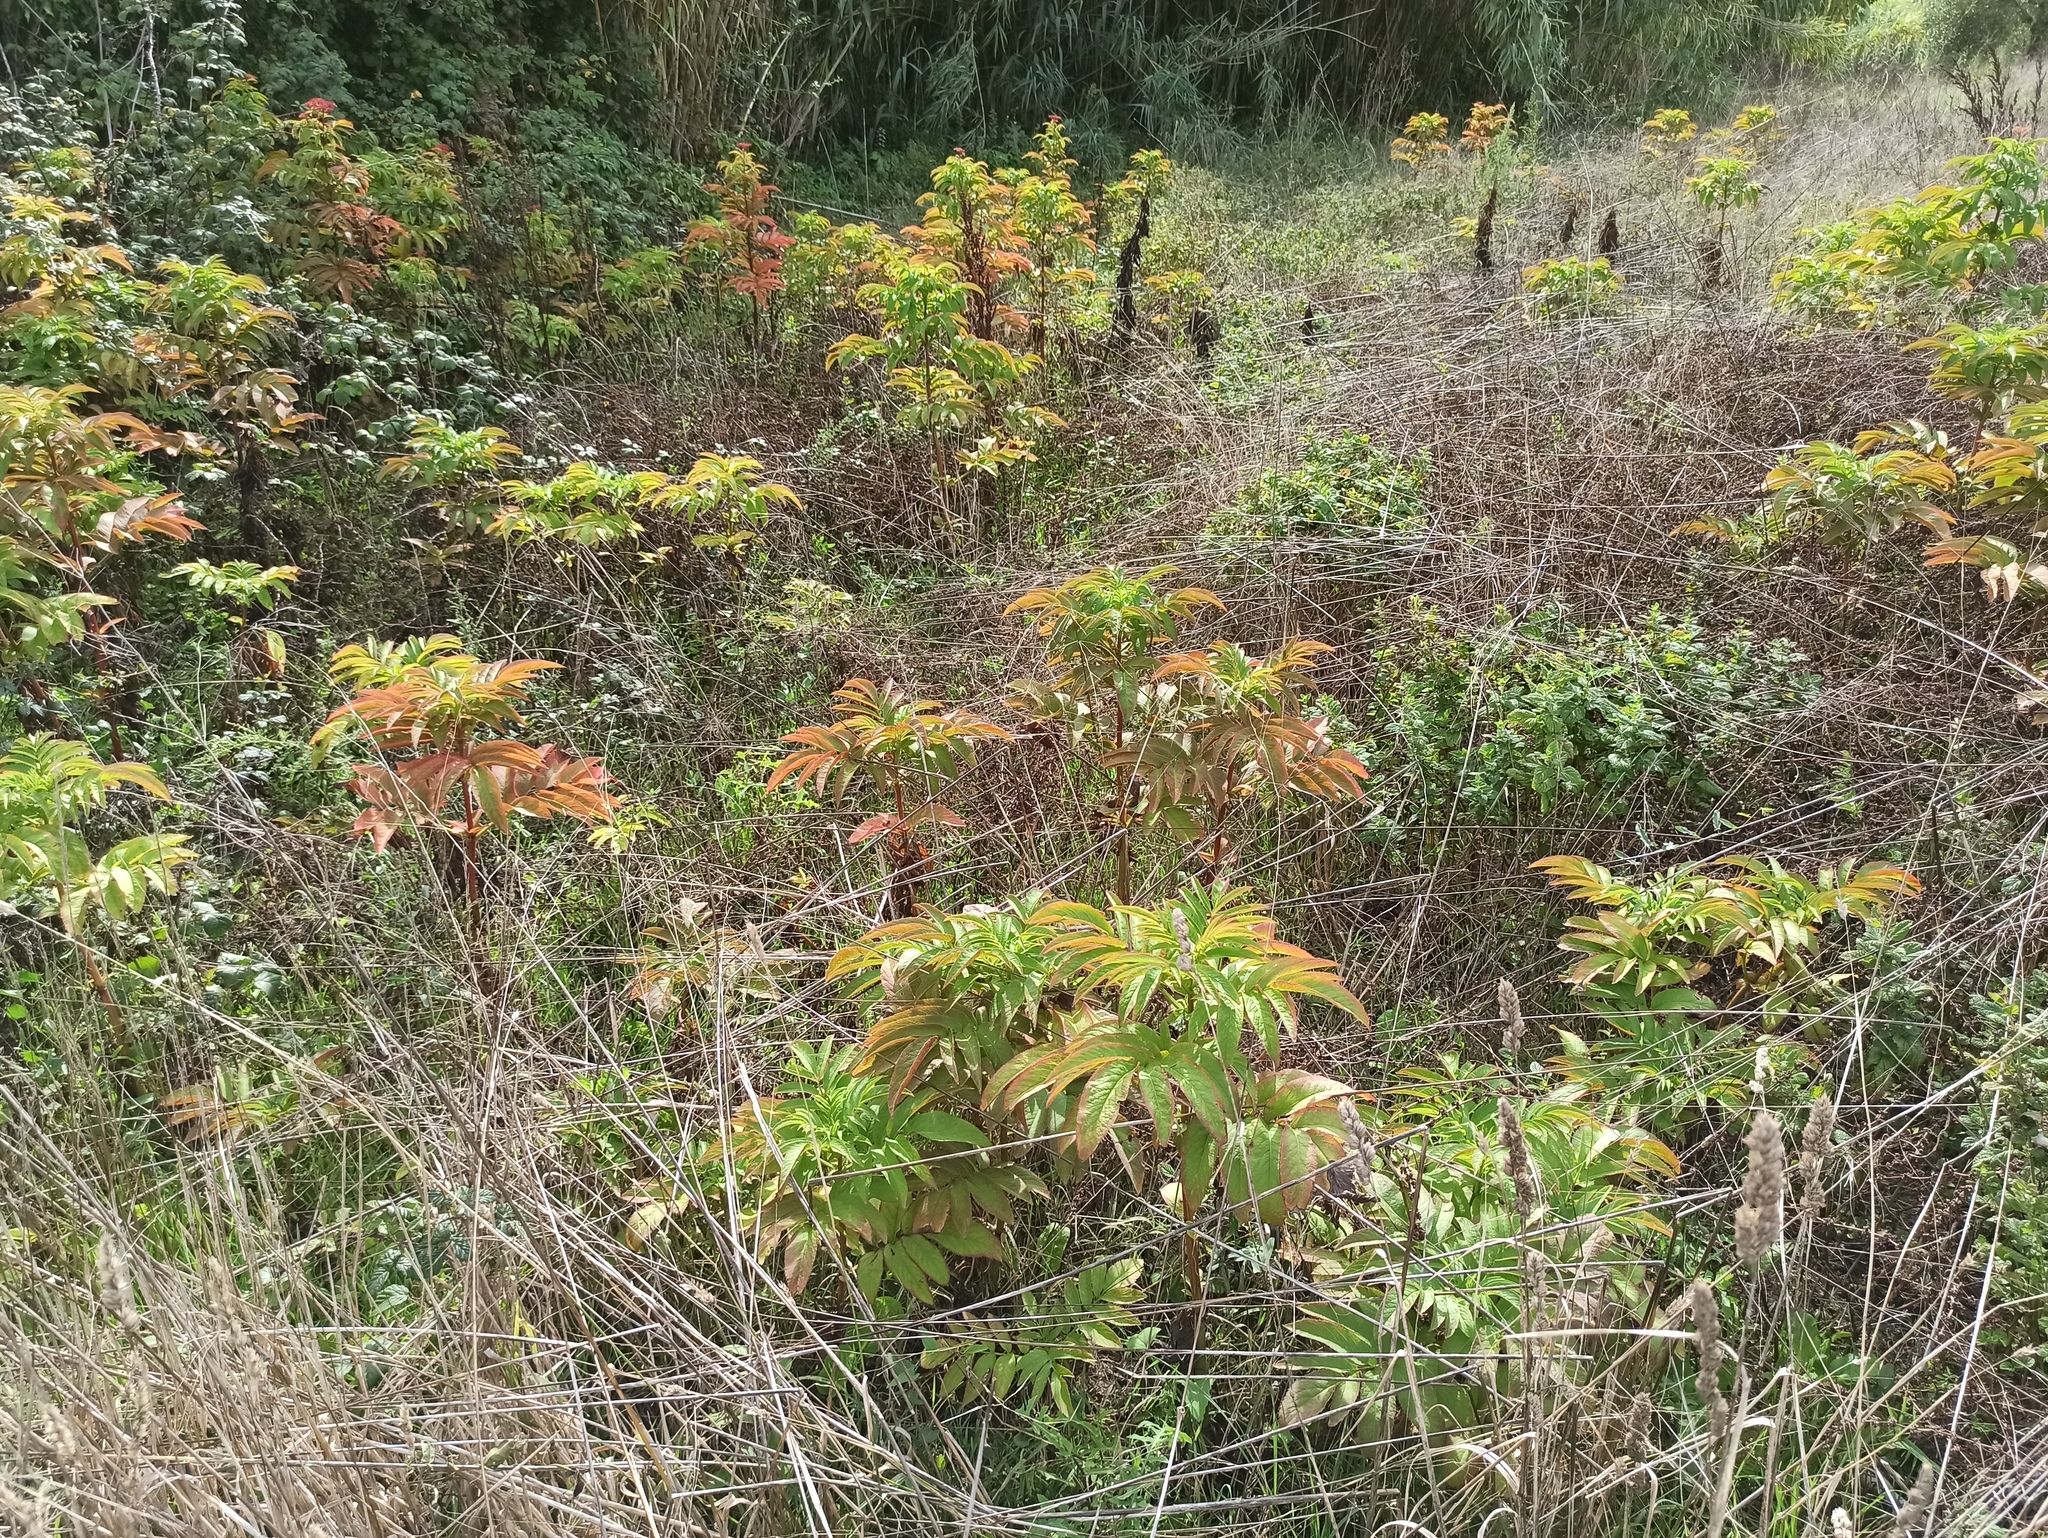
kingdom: Plantae
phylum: Tracheophyta
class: Magnoliopsida
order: Dipsacales
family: Viburnaceae
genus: Sambucus
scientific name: Sambucus ebulus
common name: Dwarf elder
